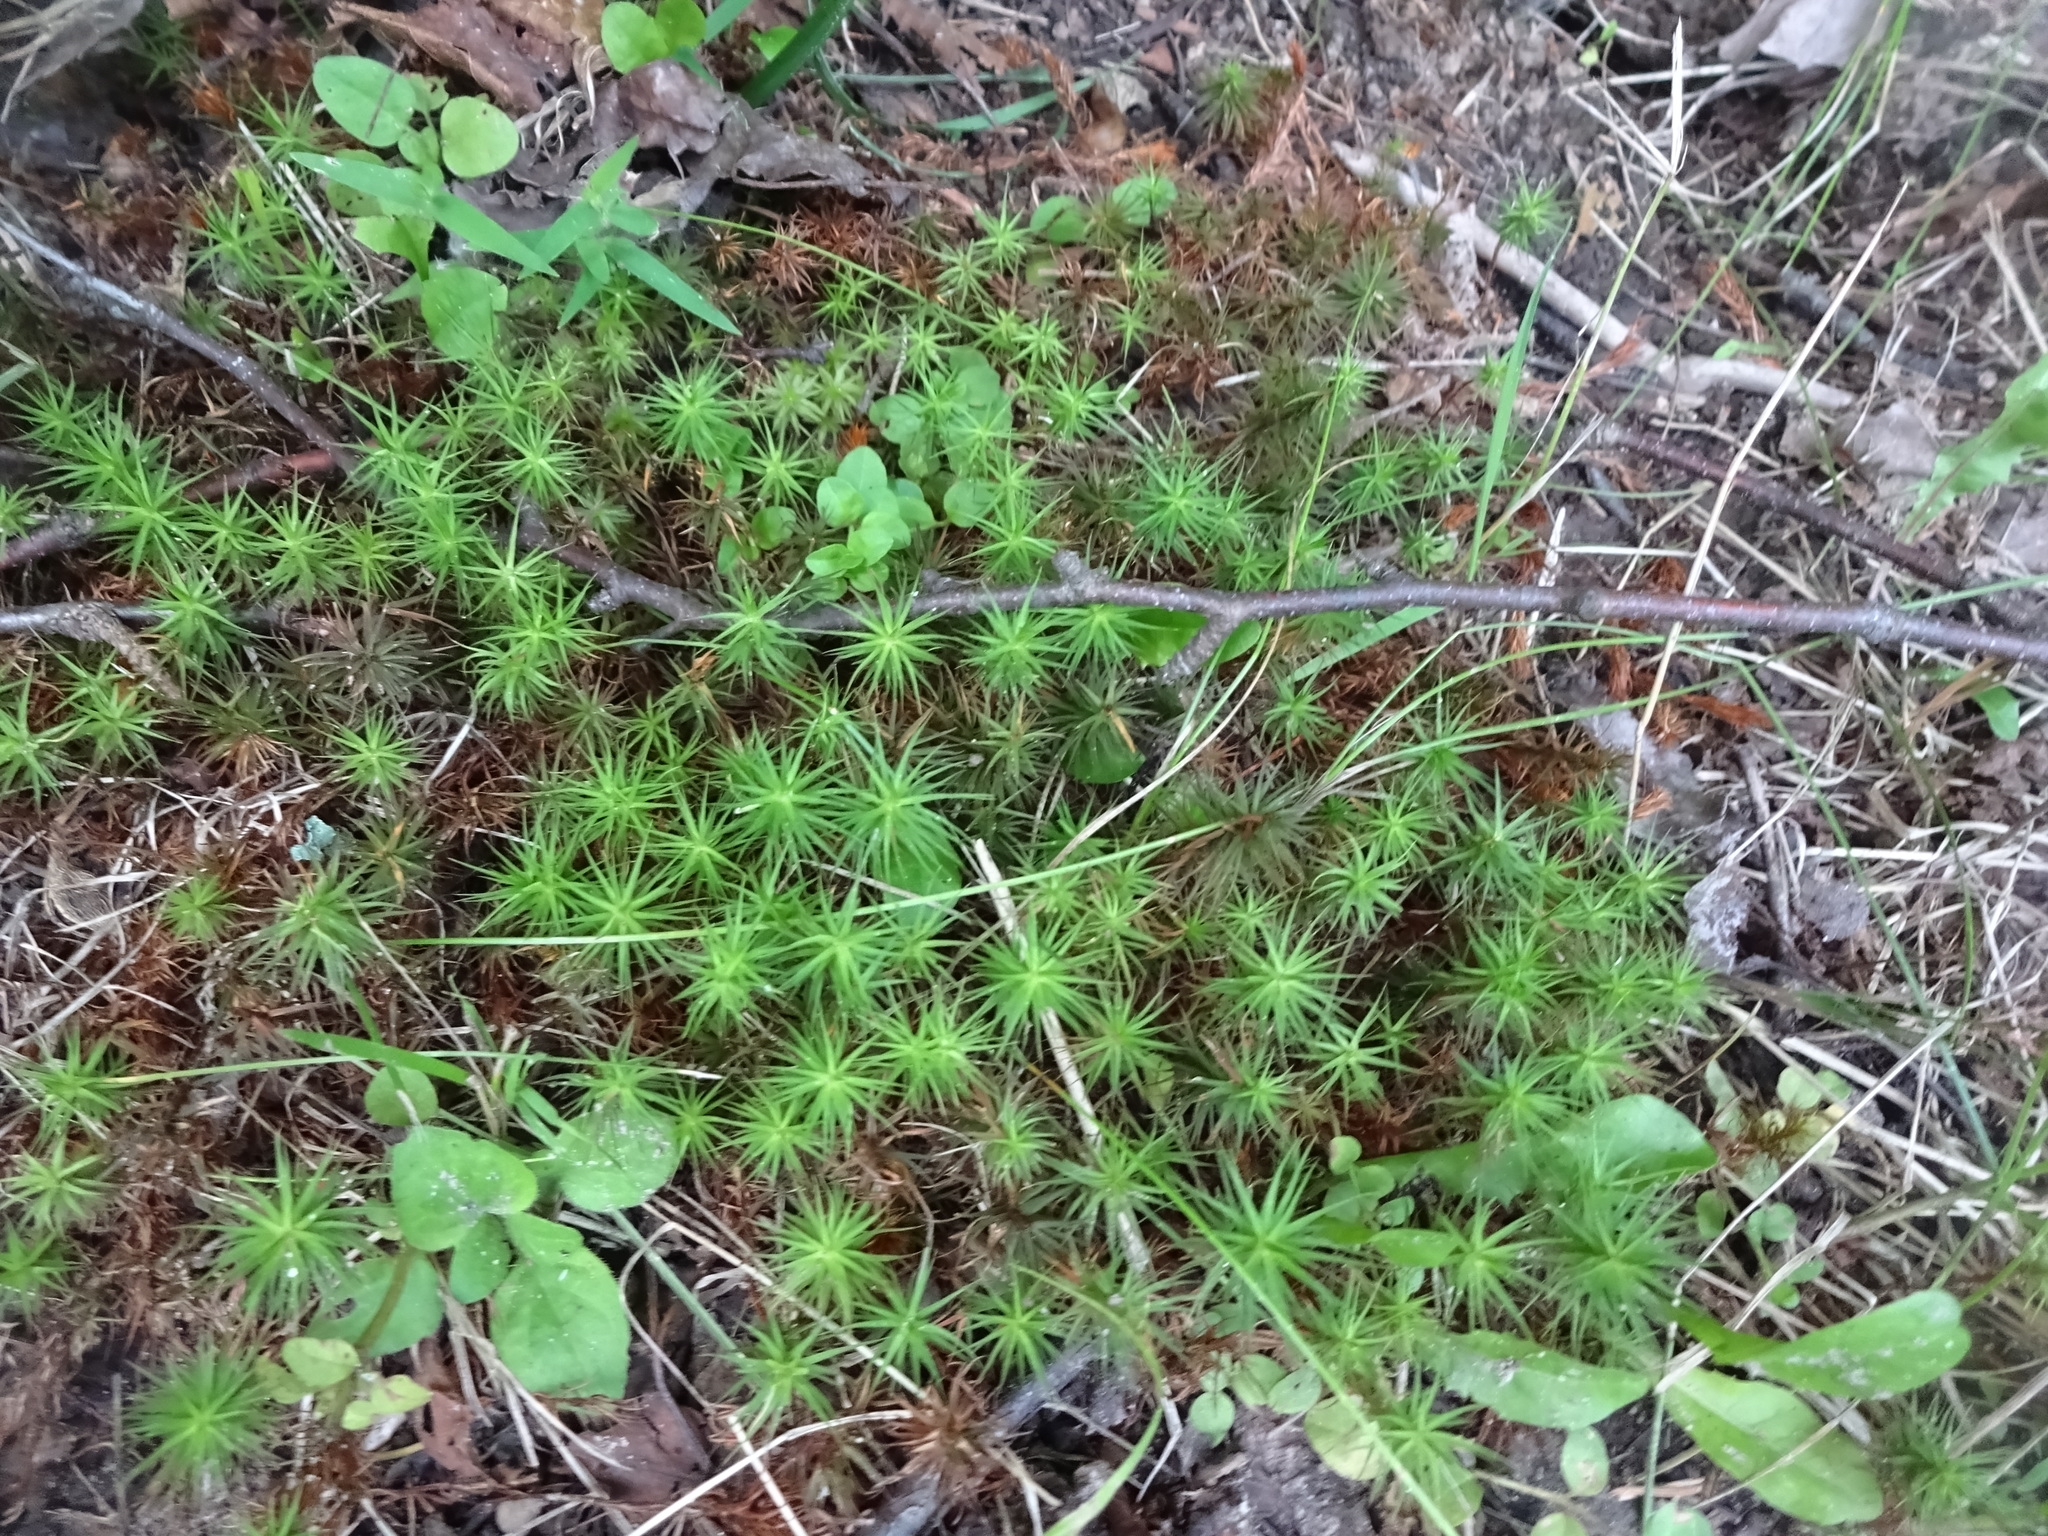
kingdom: Plantae
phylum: Bryophyta
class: Polytrichopsida
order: Polytrichales
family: Polytrichaceae
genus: Polytrichum
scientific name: Polytrichum commune
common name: Common haircap
